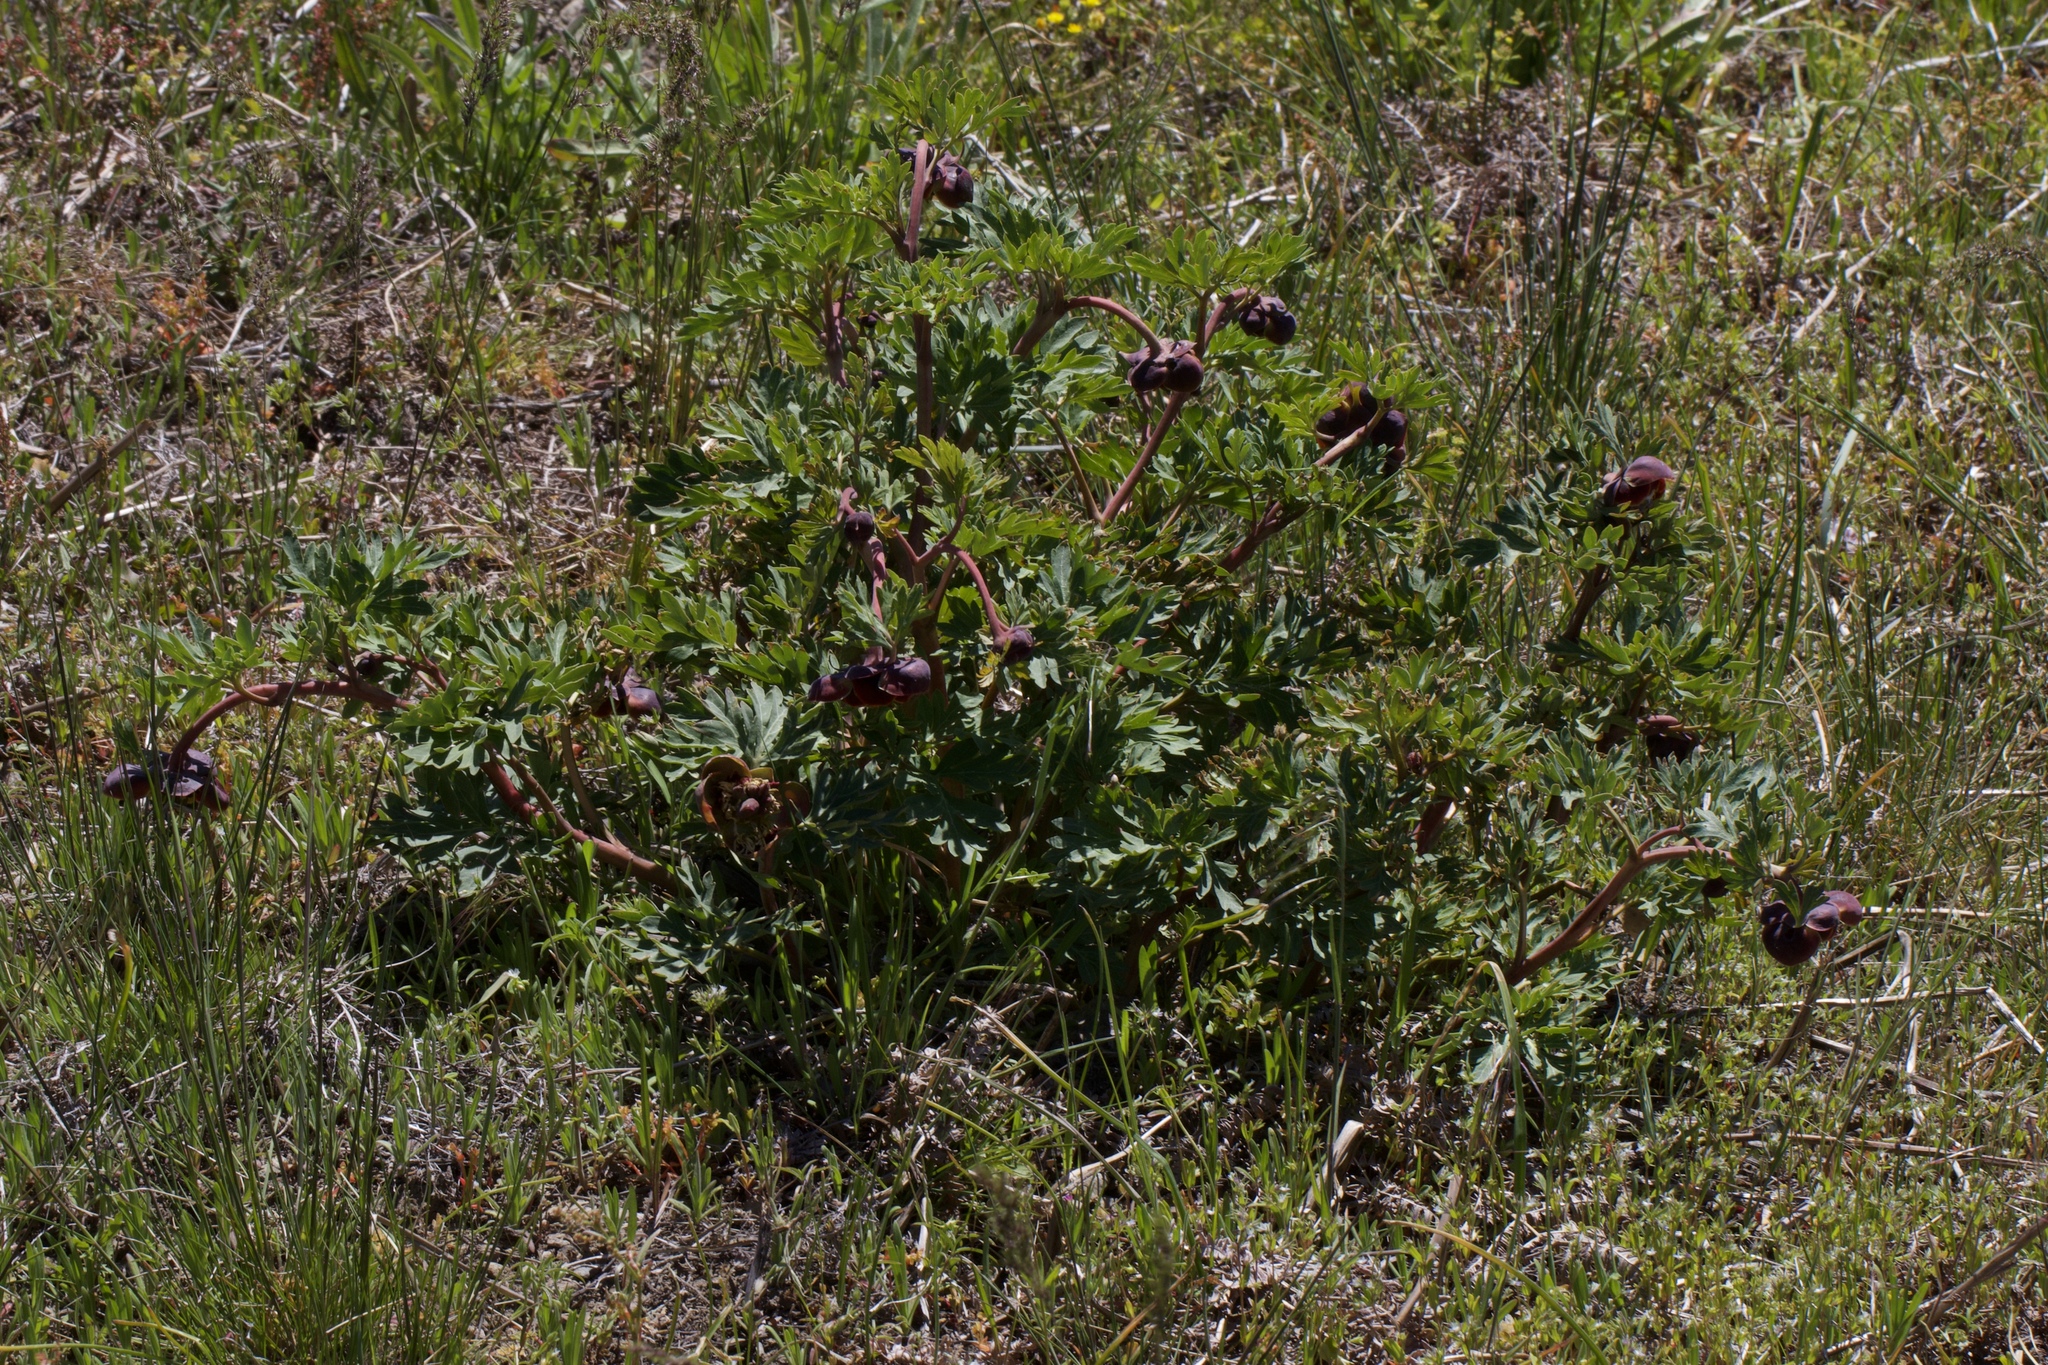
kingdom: Plantae
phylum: Tracheophyta
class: Magnoliopsida
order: Saxifragales
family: Paeoniaceae
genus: Paeonia
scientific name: Paeonia brownii
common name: Brown's peony
